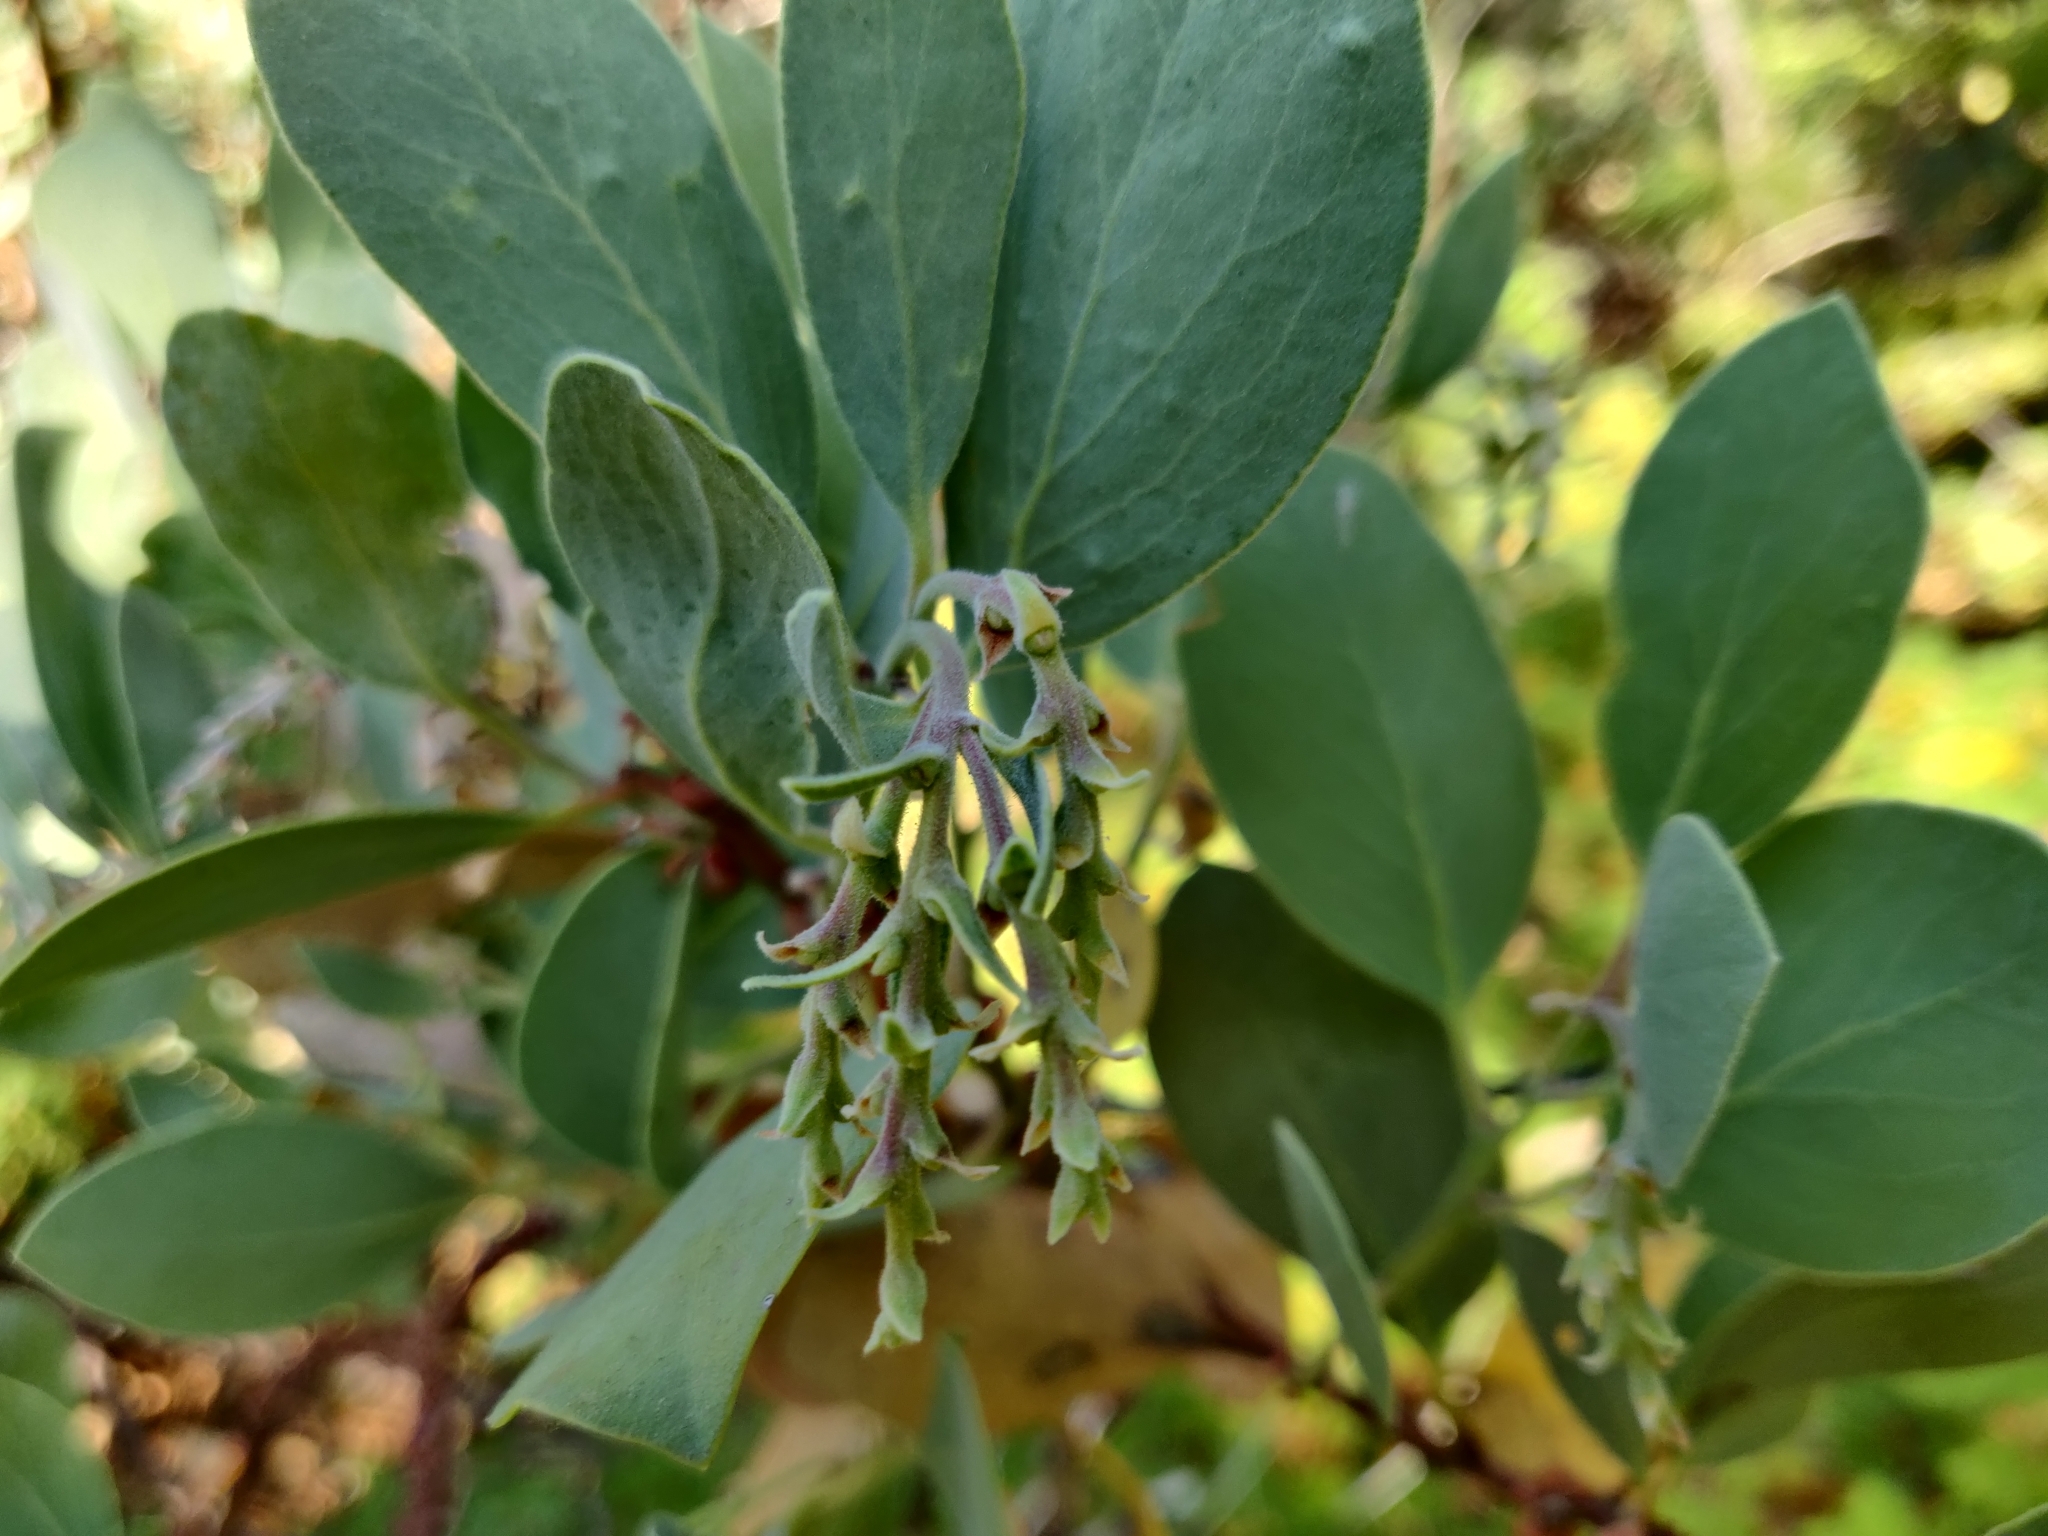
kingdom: Plantae
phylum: Tracheophyta
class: Magnoliopsida
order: Ericales
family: Ericaceae
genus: Arctostaphylos
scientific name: Arctostaphylos mewukka
